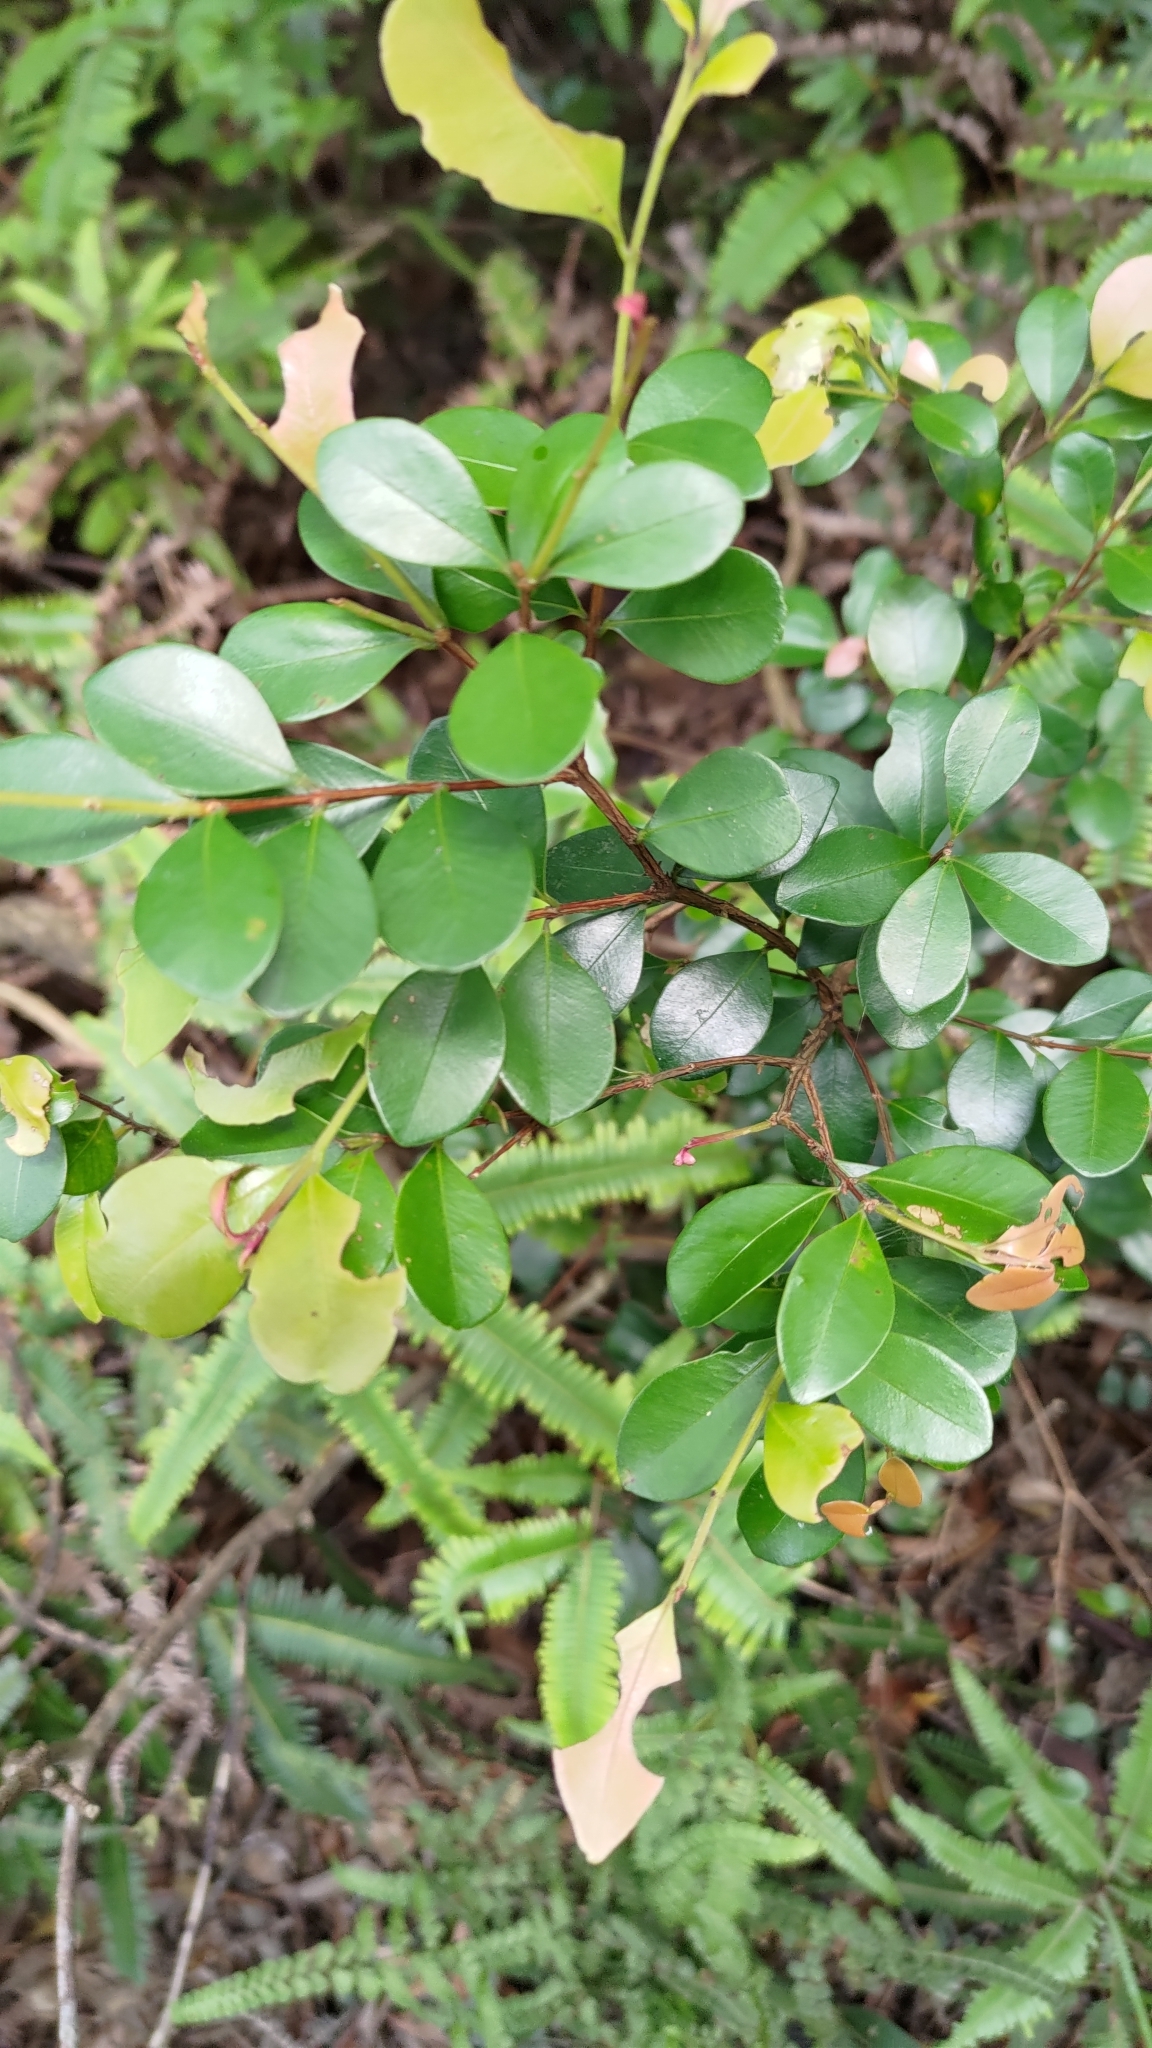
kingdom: Plantae
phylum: Tracheophyta
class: Magnoliopsida
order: Myrtales
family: Myrtaceae
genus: Syzygium
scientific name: Syzygium elliptifolium
